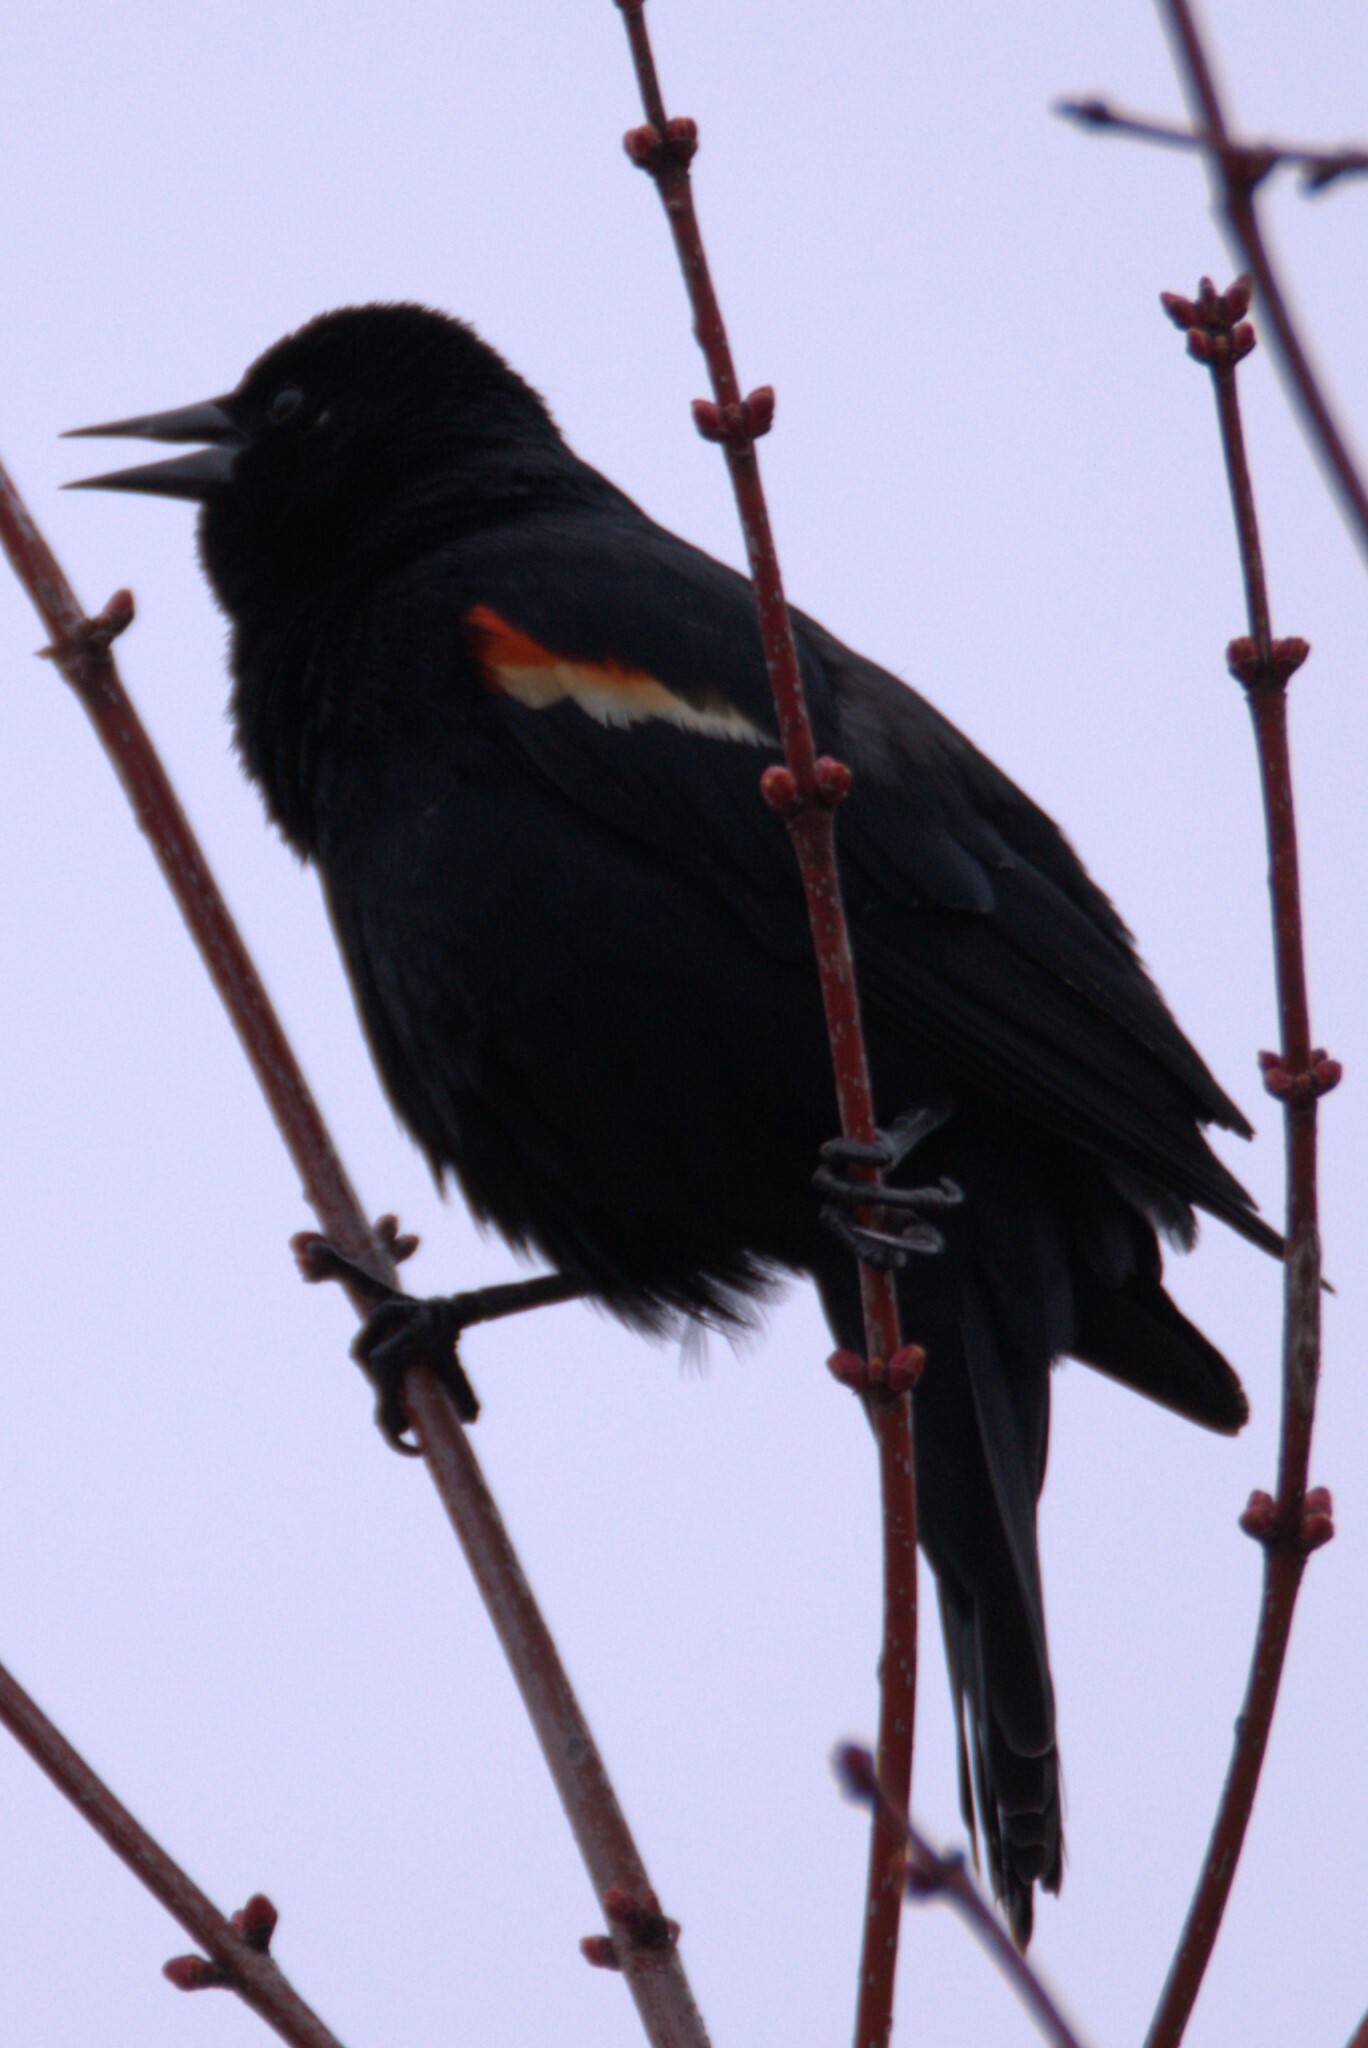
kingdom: Animalia
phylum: Chordata
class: Aves
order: Passeriformes
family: Icteridae
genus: Agelaius
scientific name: Agelaius phoeniceus
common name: Red-winged blackbird
